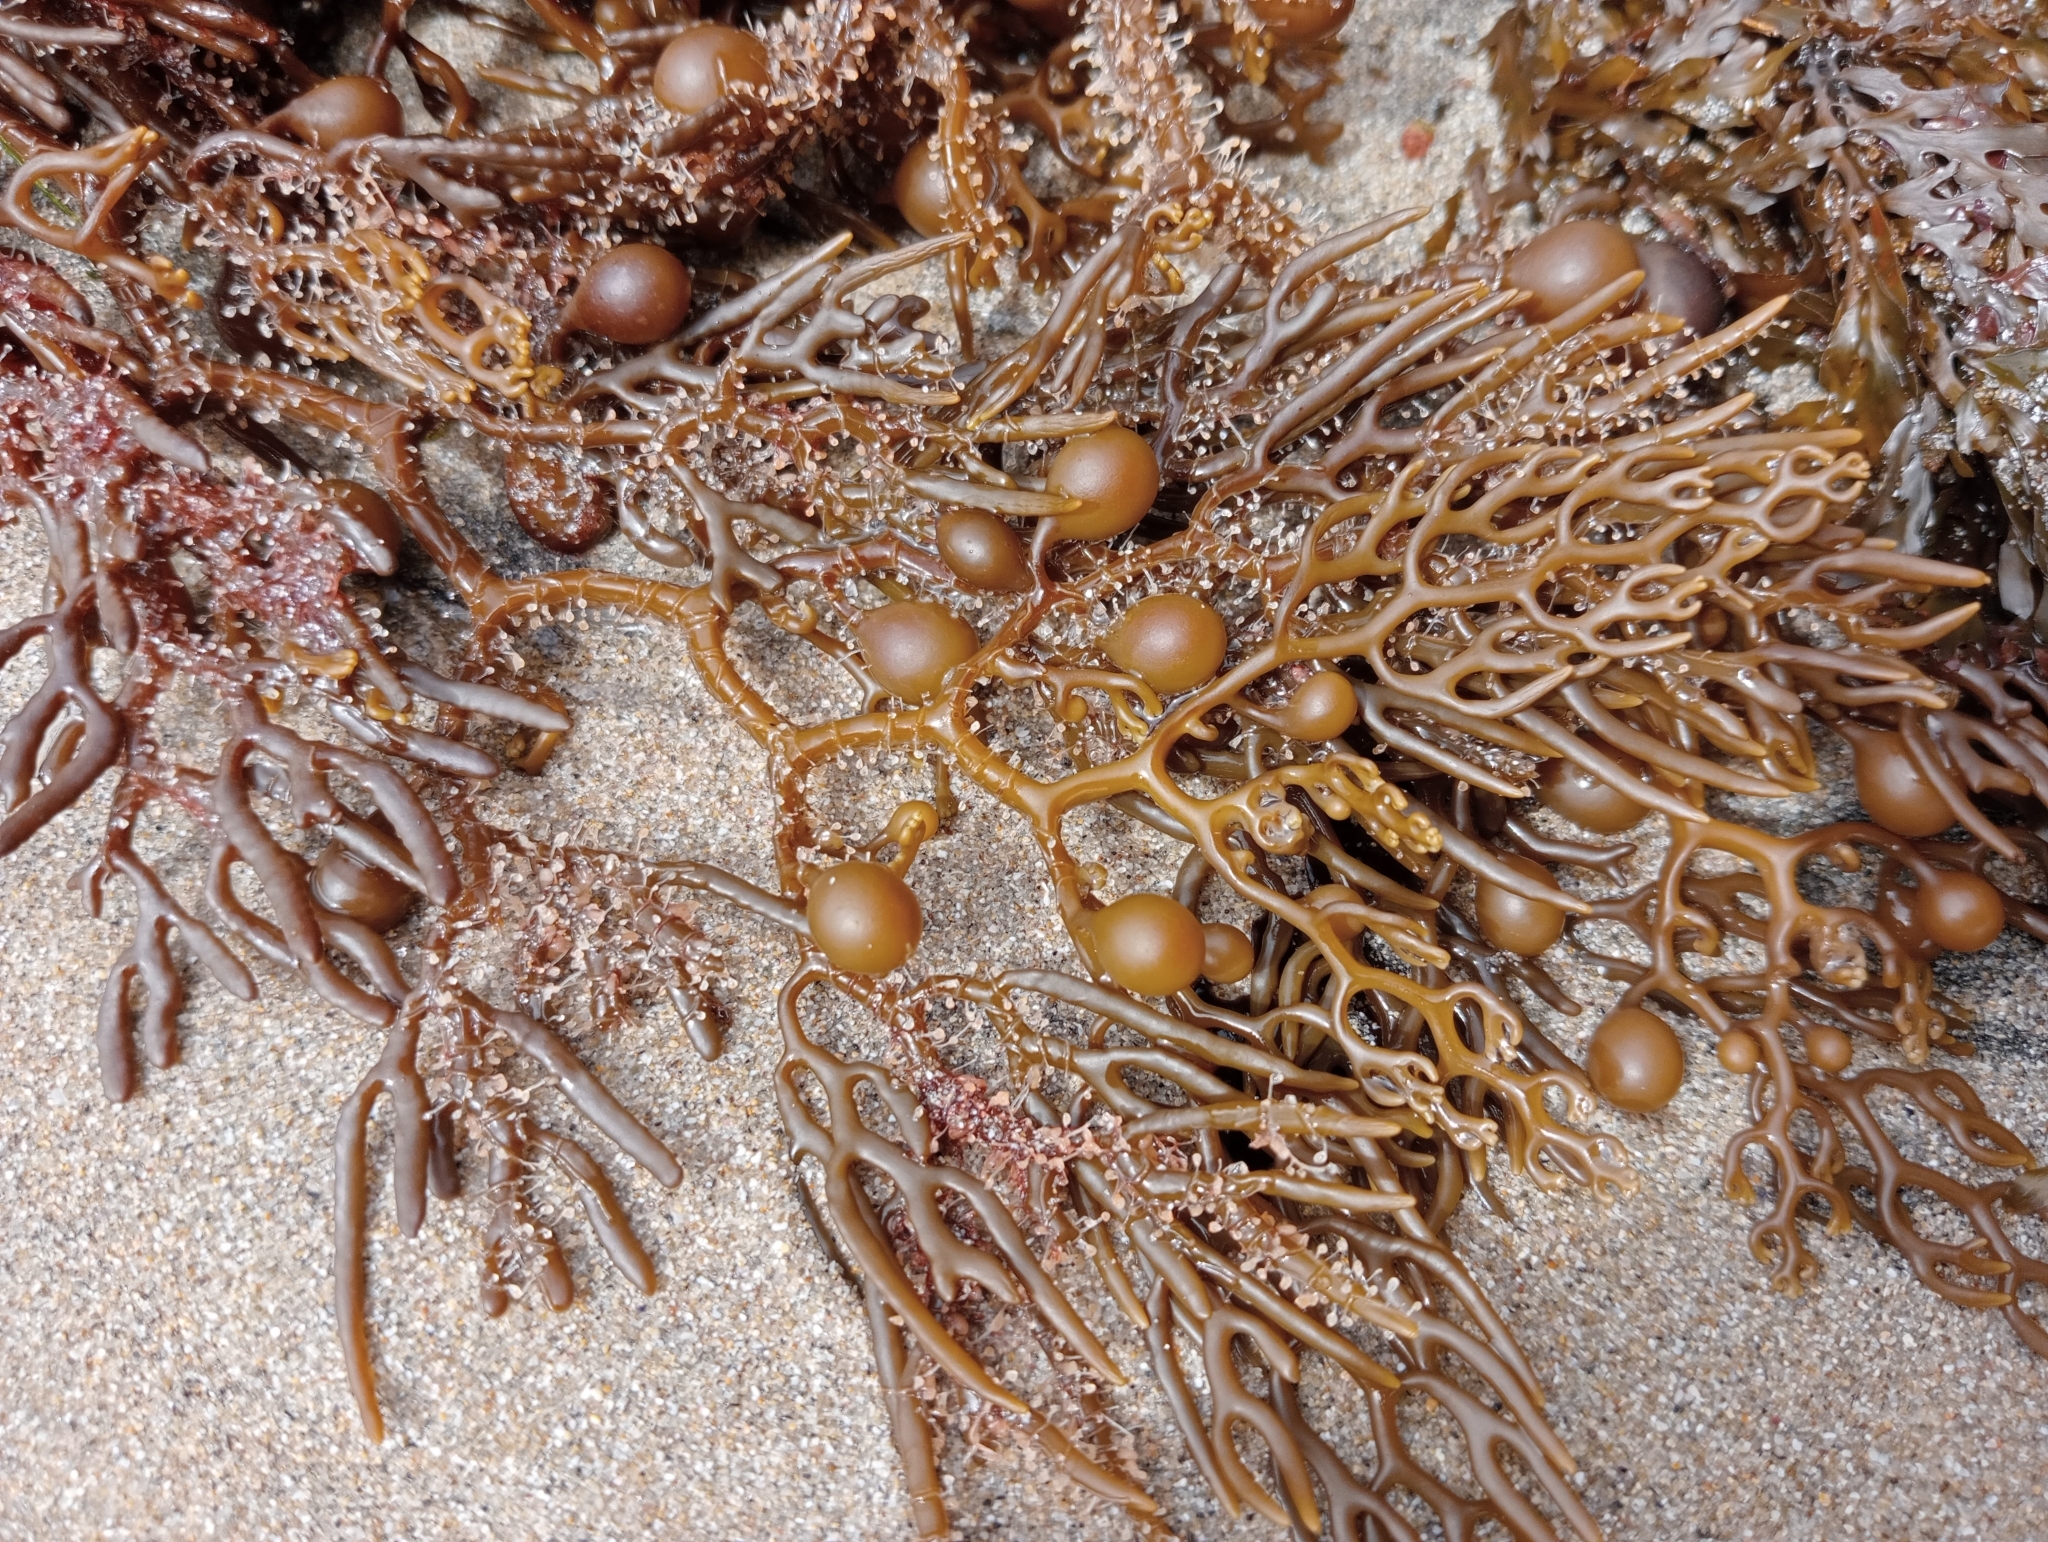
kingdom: Chromista
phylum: Ochrophyta
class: Phaeophyceae
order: Fucales
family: Sargassaceae
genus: Cystophora
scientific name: Cystophora retroflexa
